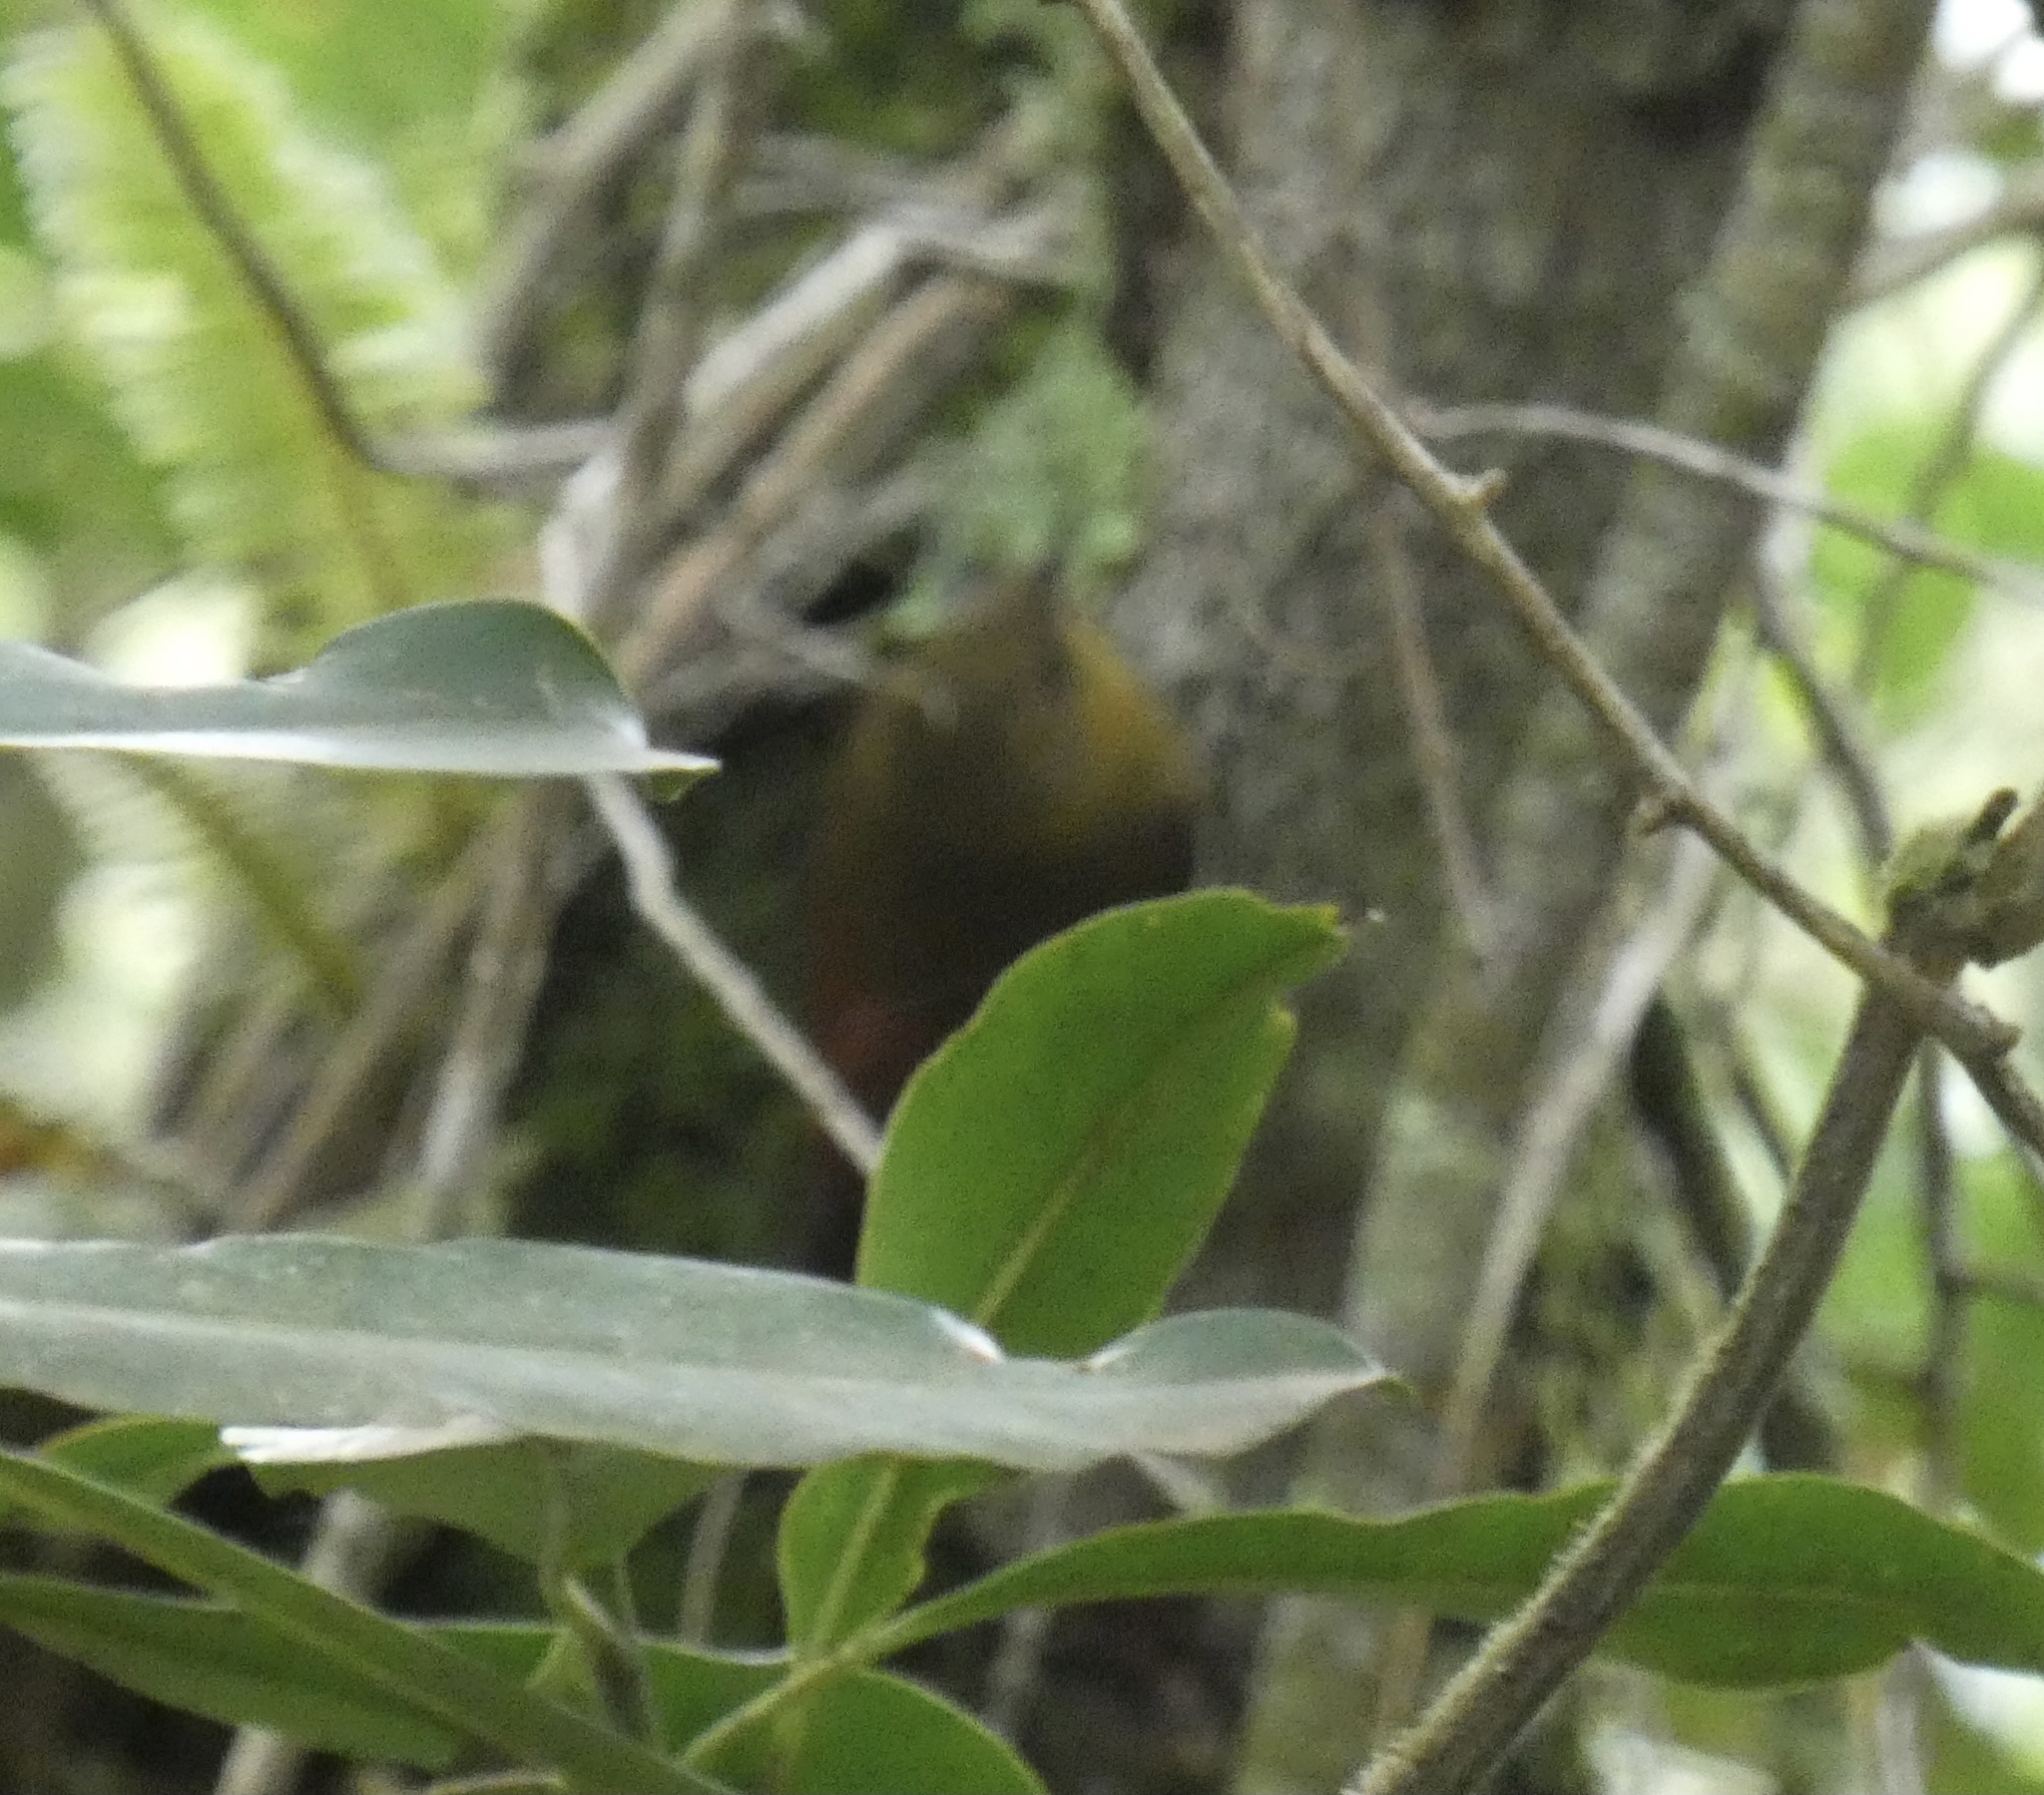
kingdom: Animalia
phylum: Chordata
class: Aves
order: Passeriformes
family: Furnariidae
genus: Sittasomus
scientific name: Sittasomus griseicapillus
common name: Olivaceous woodcreeper
